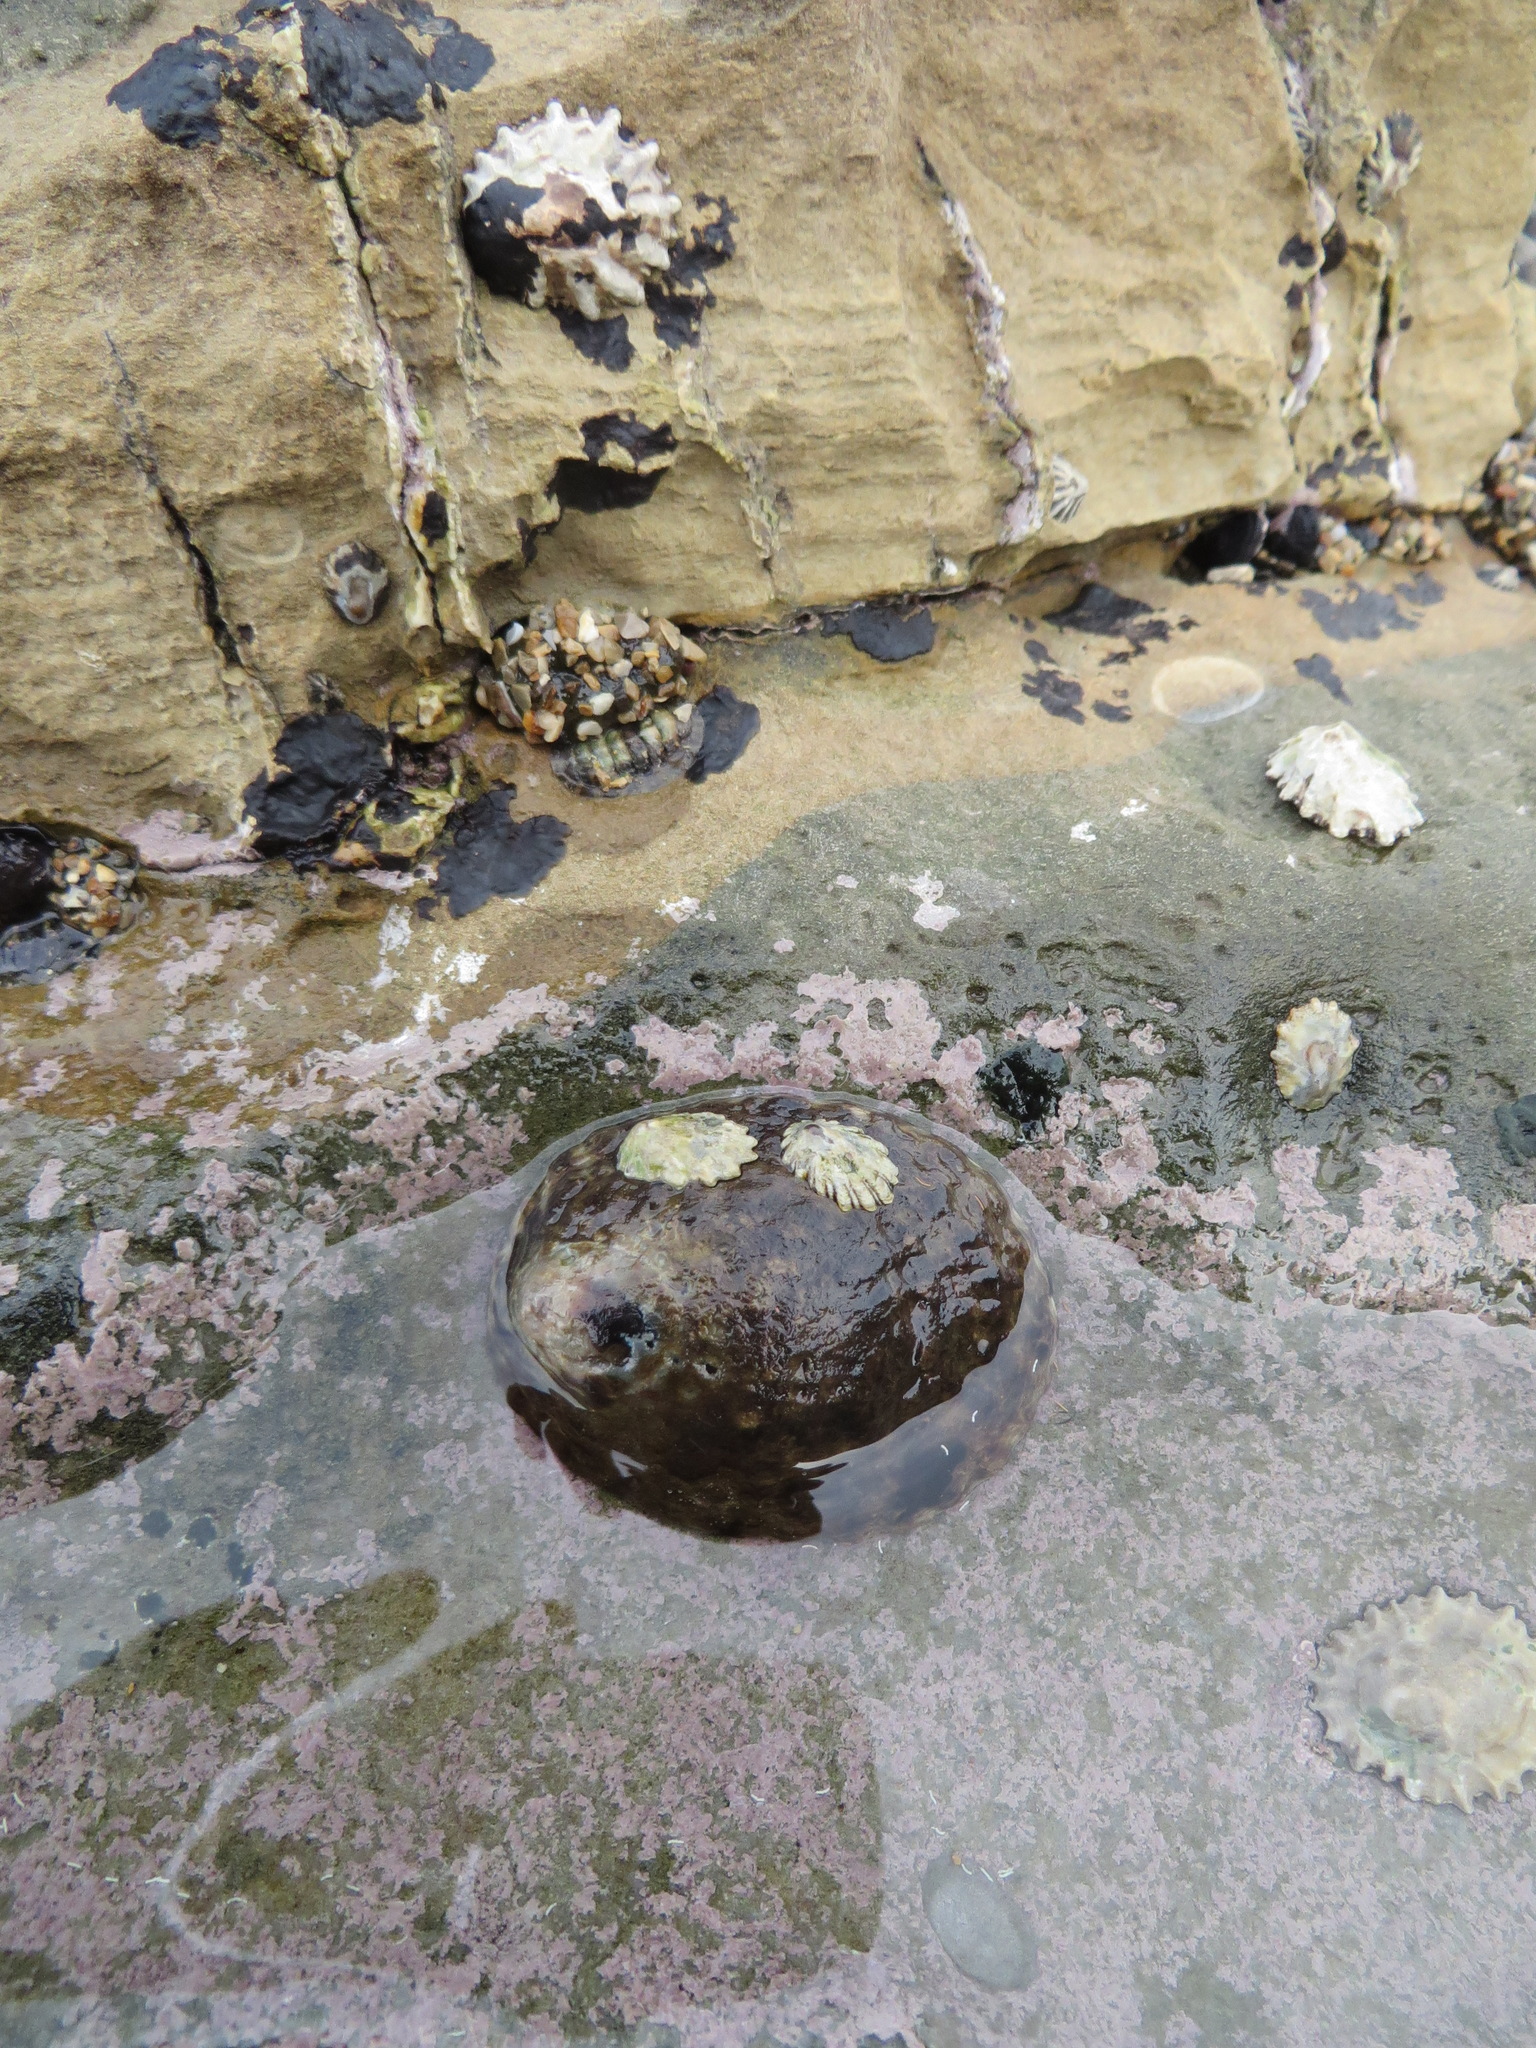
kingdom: Animalia
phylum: Mollusca
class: Gastropoda
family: Lottiidae
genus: Lottia
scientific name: Lottia gigantea
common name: Owl limpet
